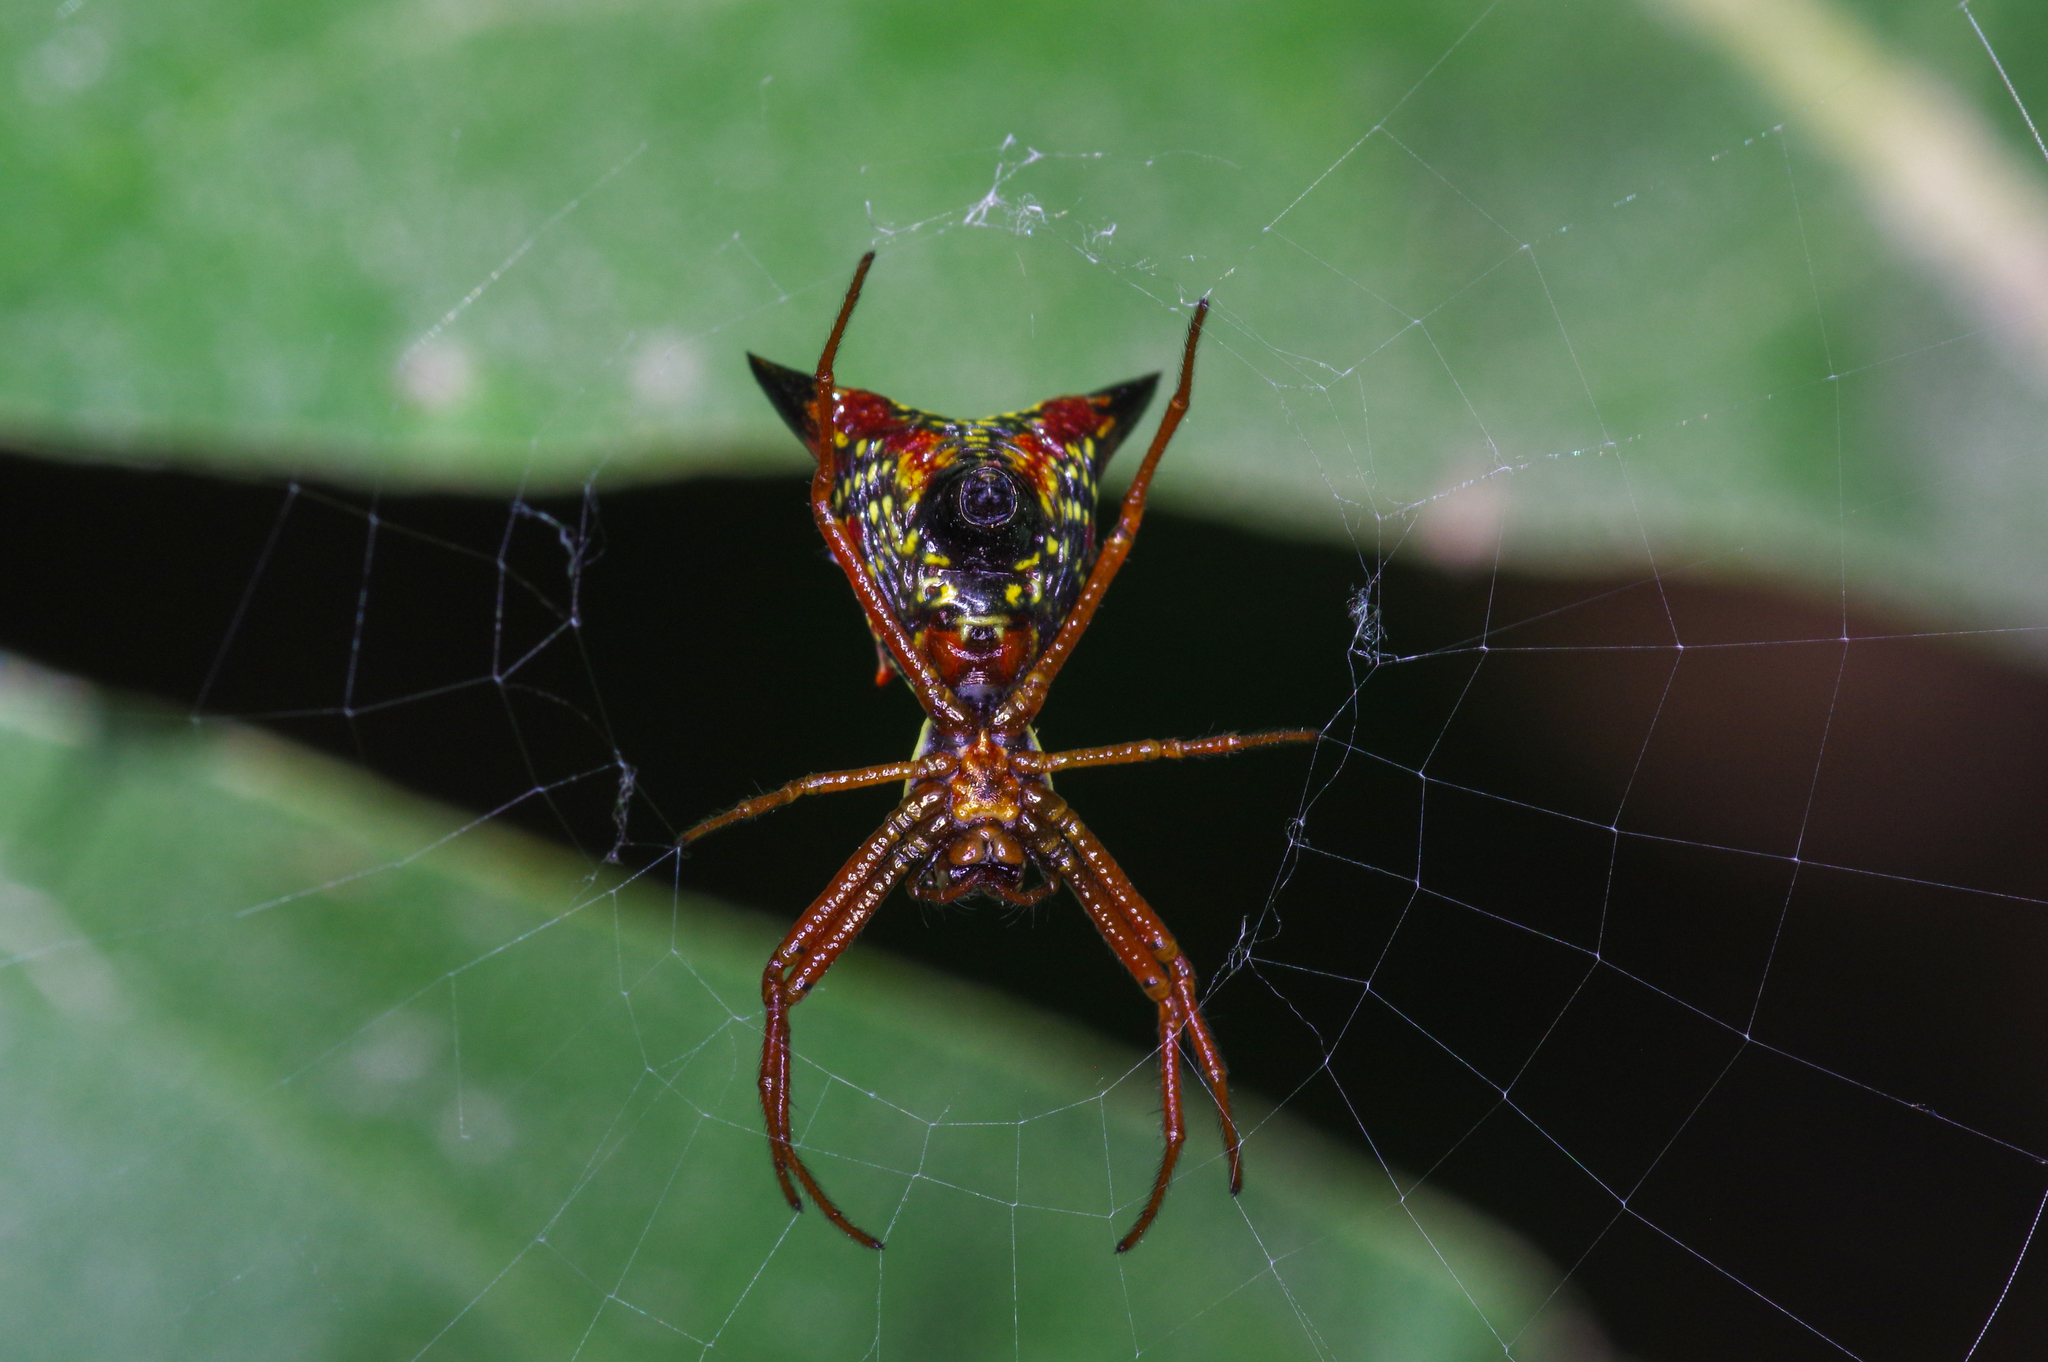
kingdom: Animalia
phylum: Arthropoda
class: Arachnida
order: Araneae
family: Araneidae
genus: Micrathena
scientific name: Micrathena sagittata
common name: Orb weavers
